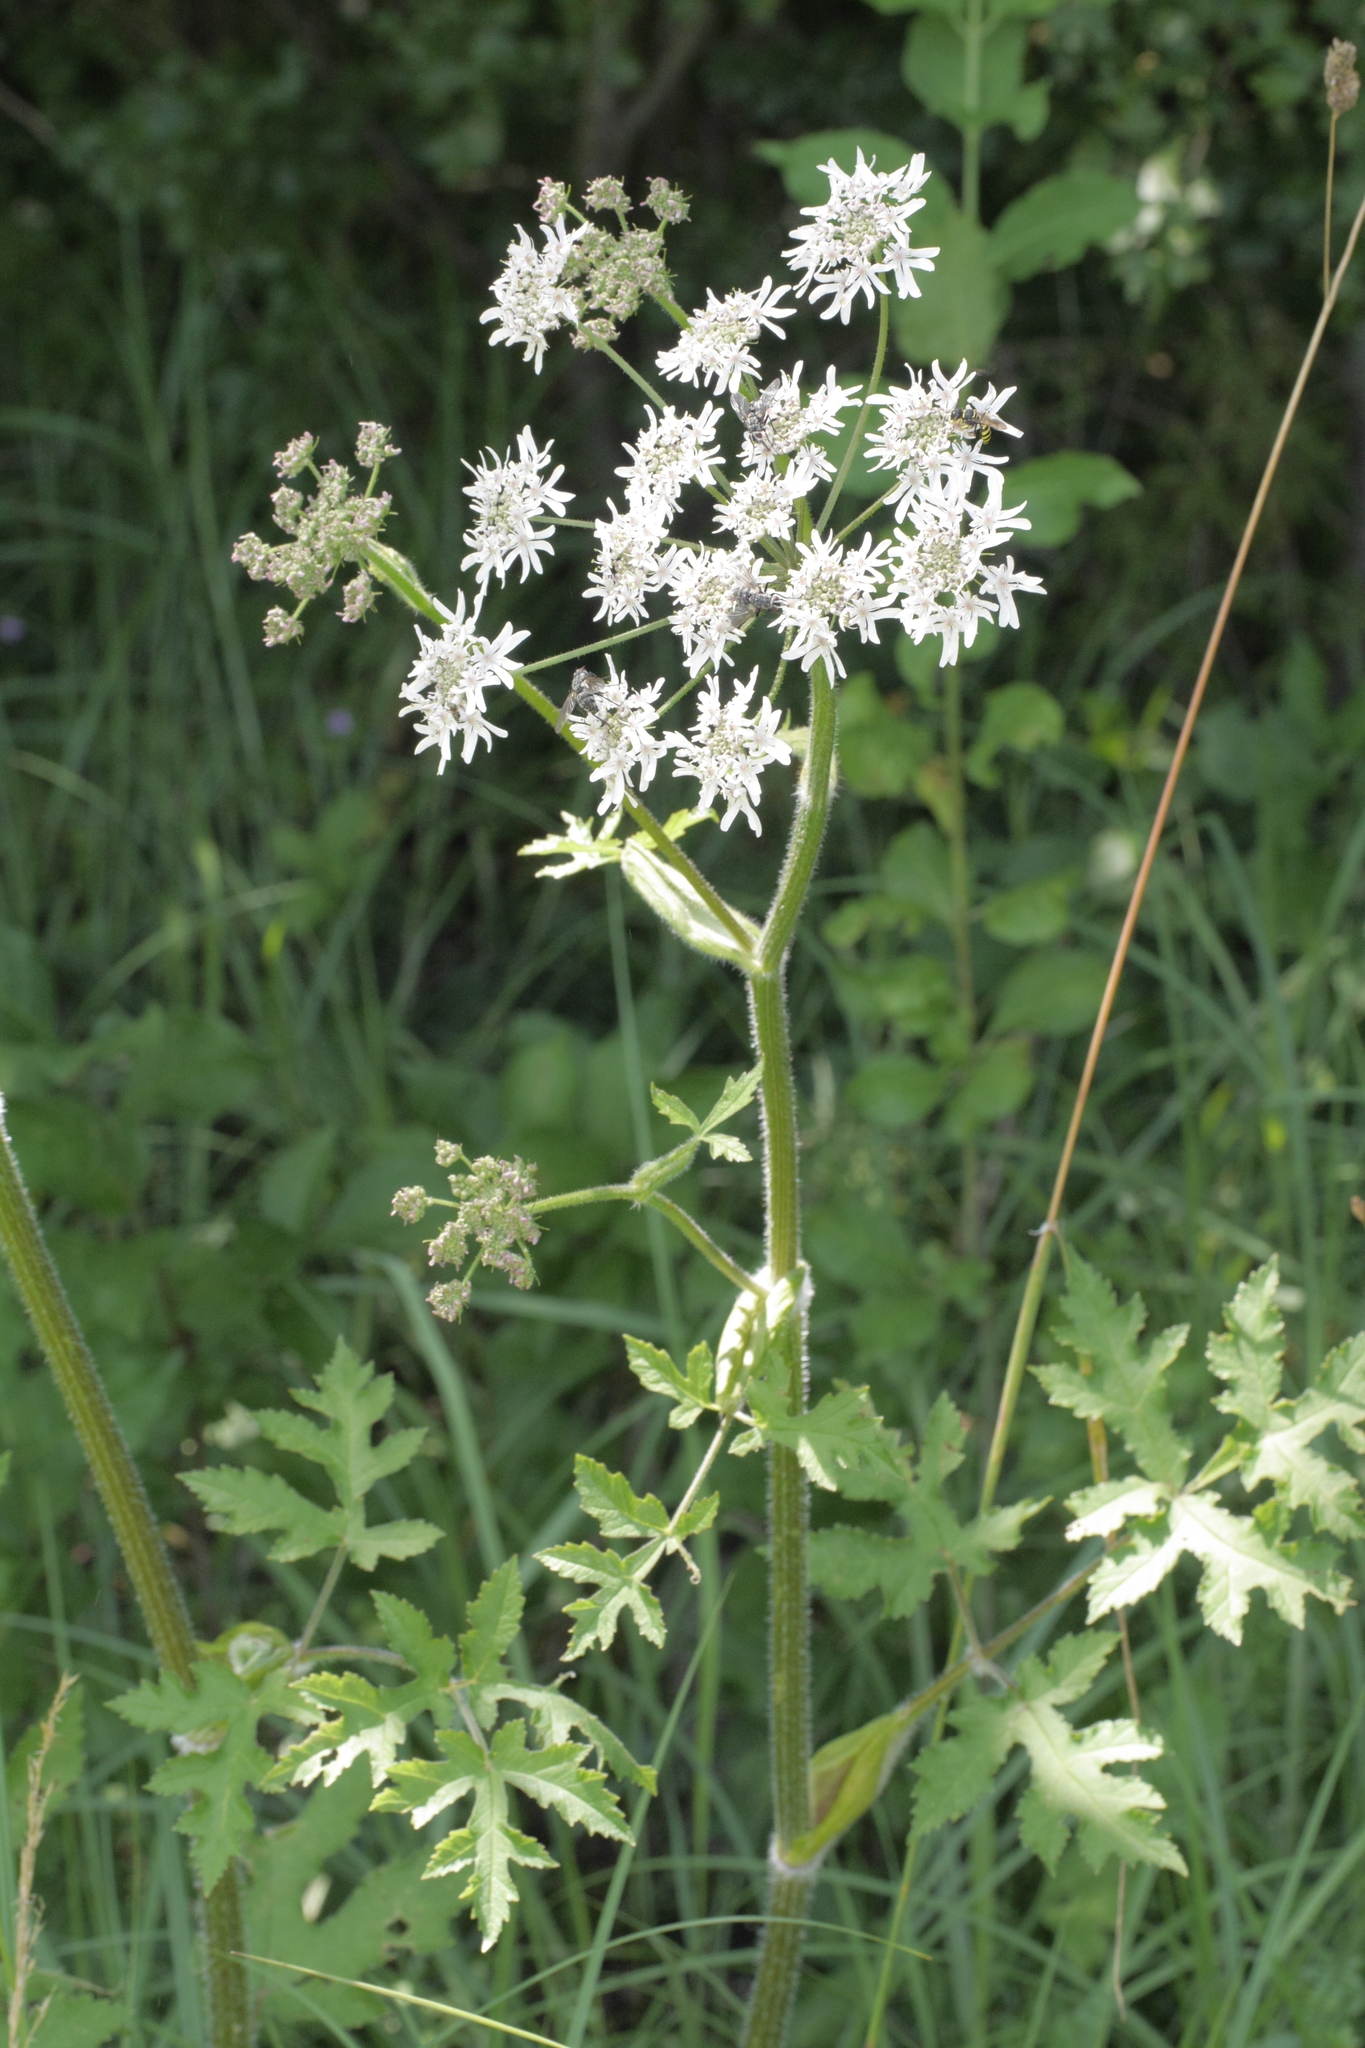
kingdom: Plantae
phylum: Tracheophyta
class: Magnoliopsida
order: Apiales
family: Apiaceae
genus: Heracleum
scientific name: Heracleum sphondylium
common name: Hogweed
